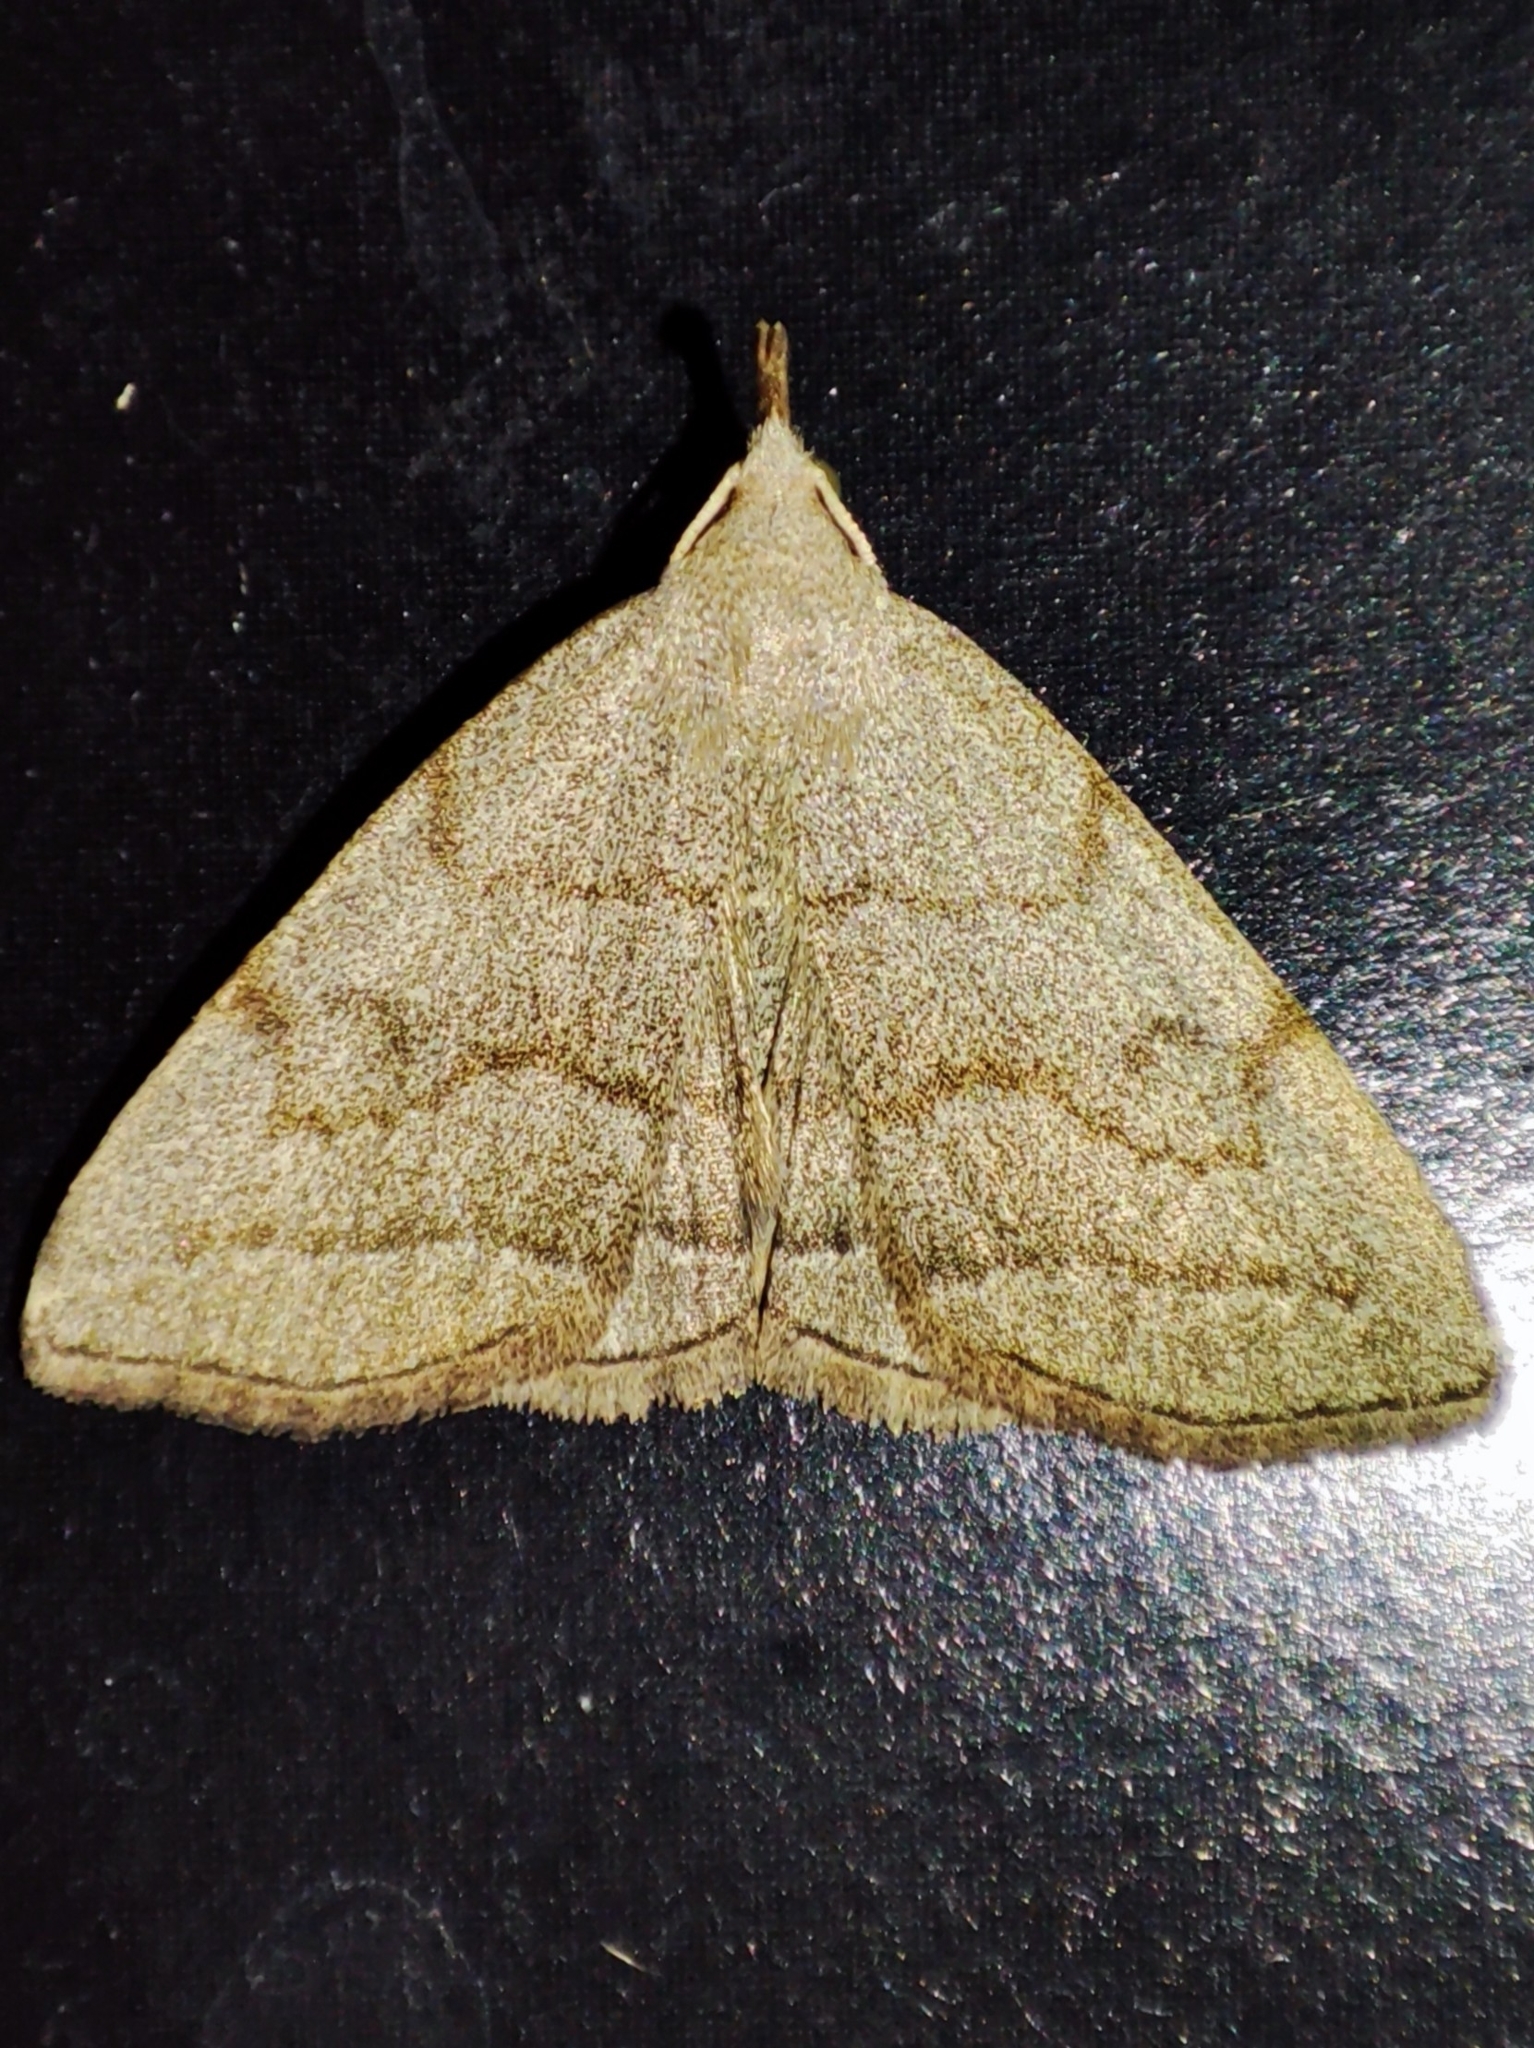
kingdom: Animalia
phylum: Arthropoda
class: Insecta
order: Lepidoptera
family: Erebidae
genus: Pechipogo
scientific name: Pechipogo strigilata
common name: Common fan-foot
